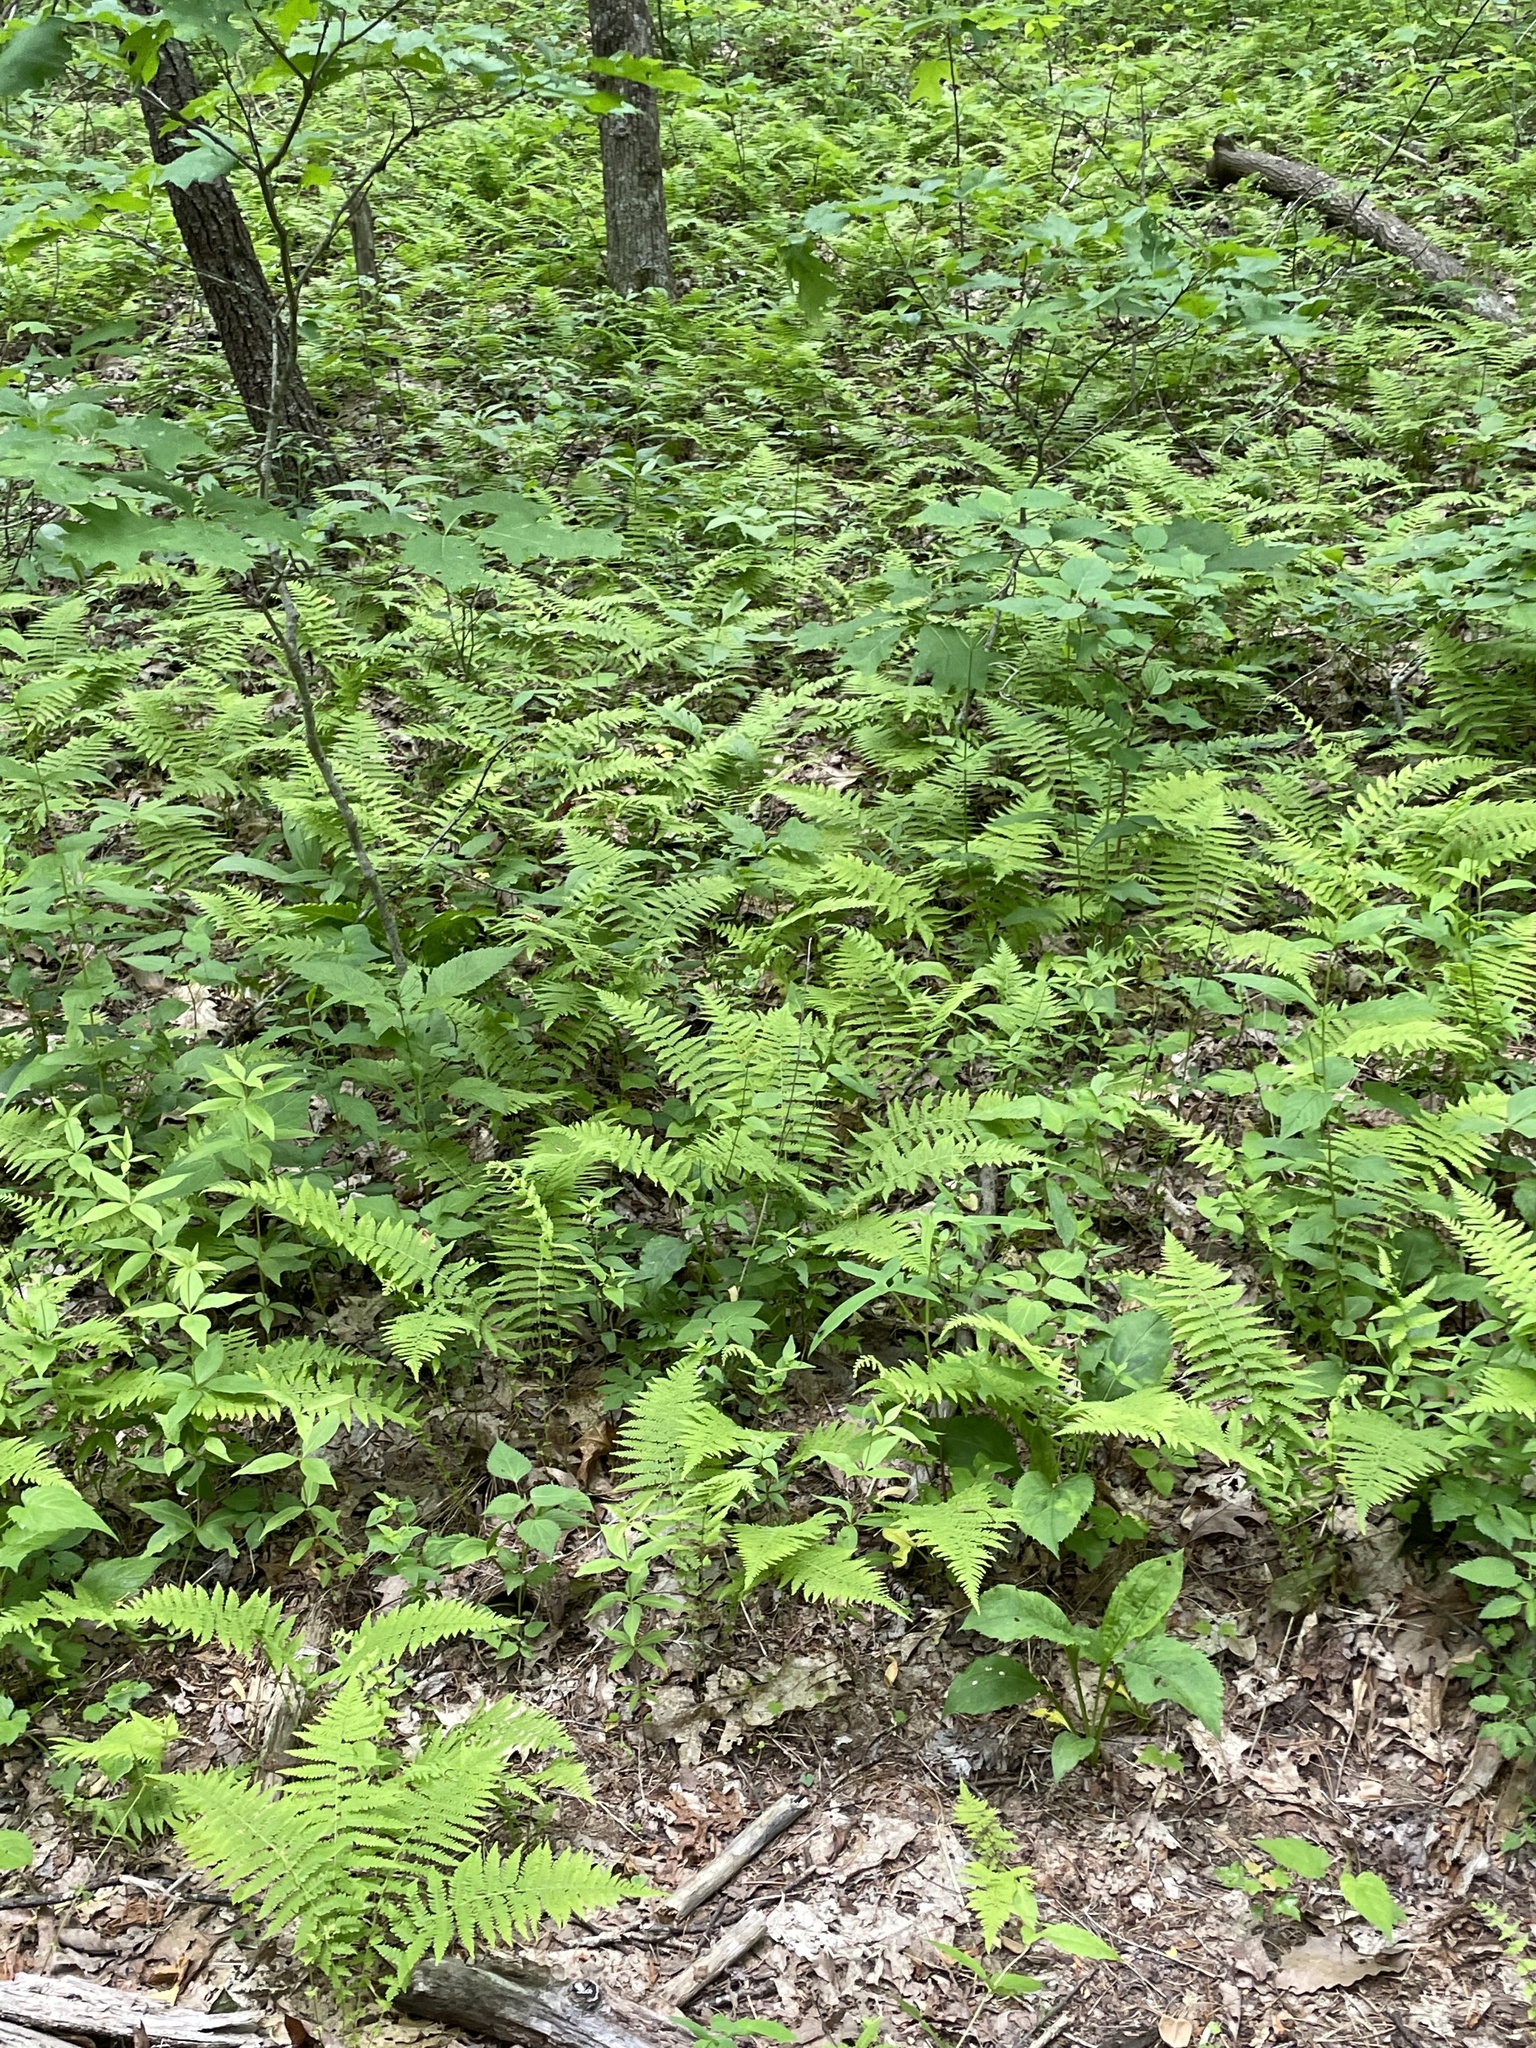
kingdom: Plantae
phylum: Tracheophyta
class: Polypodiopsida
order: Polypodiales
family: Thelypteridaceae
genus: Amauropelta
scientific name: Amauropelta noveboracensis
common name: New york fern
